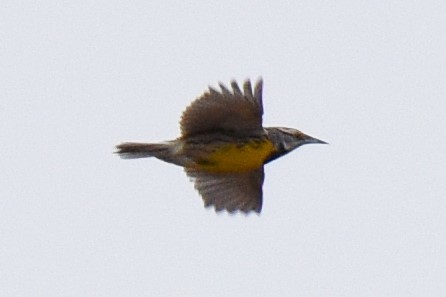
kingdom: Animalia
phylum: Chordata
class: Aves
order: Passeriformes
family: Icteridae
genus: Sturnella
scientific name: Sturnella magna
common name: Eastern meadowlark
